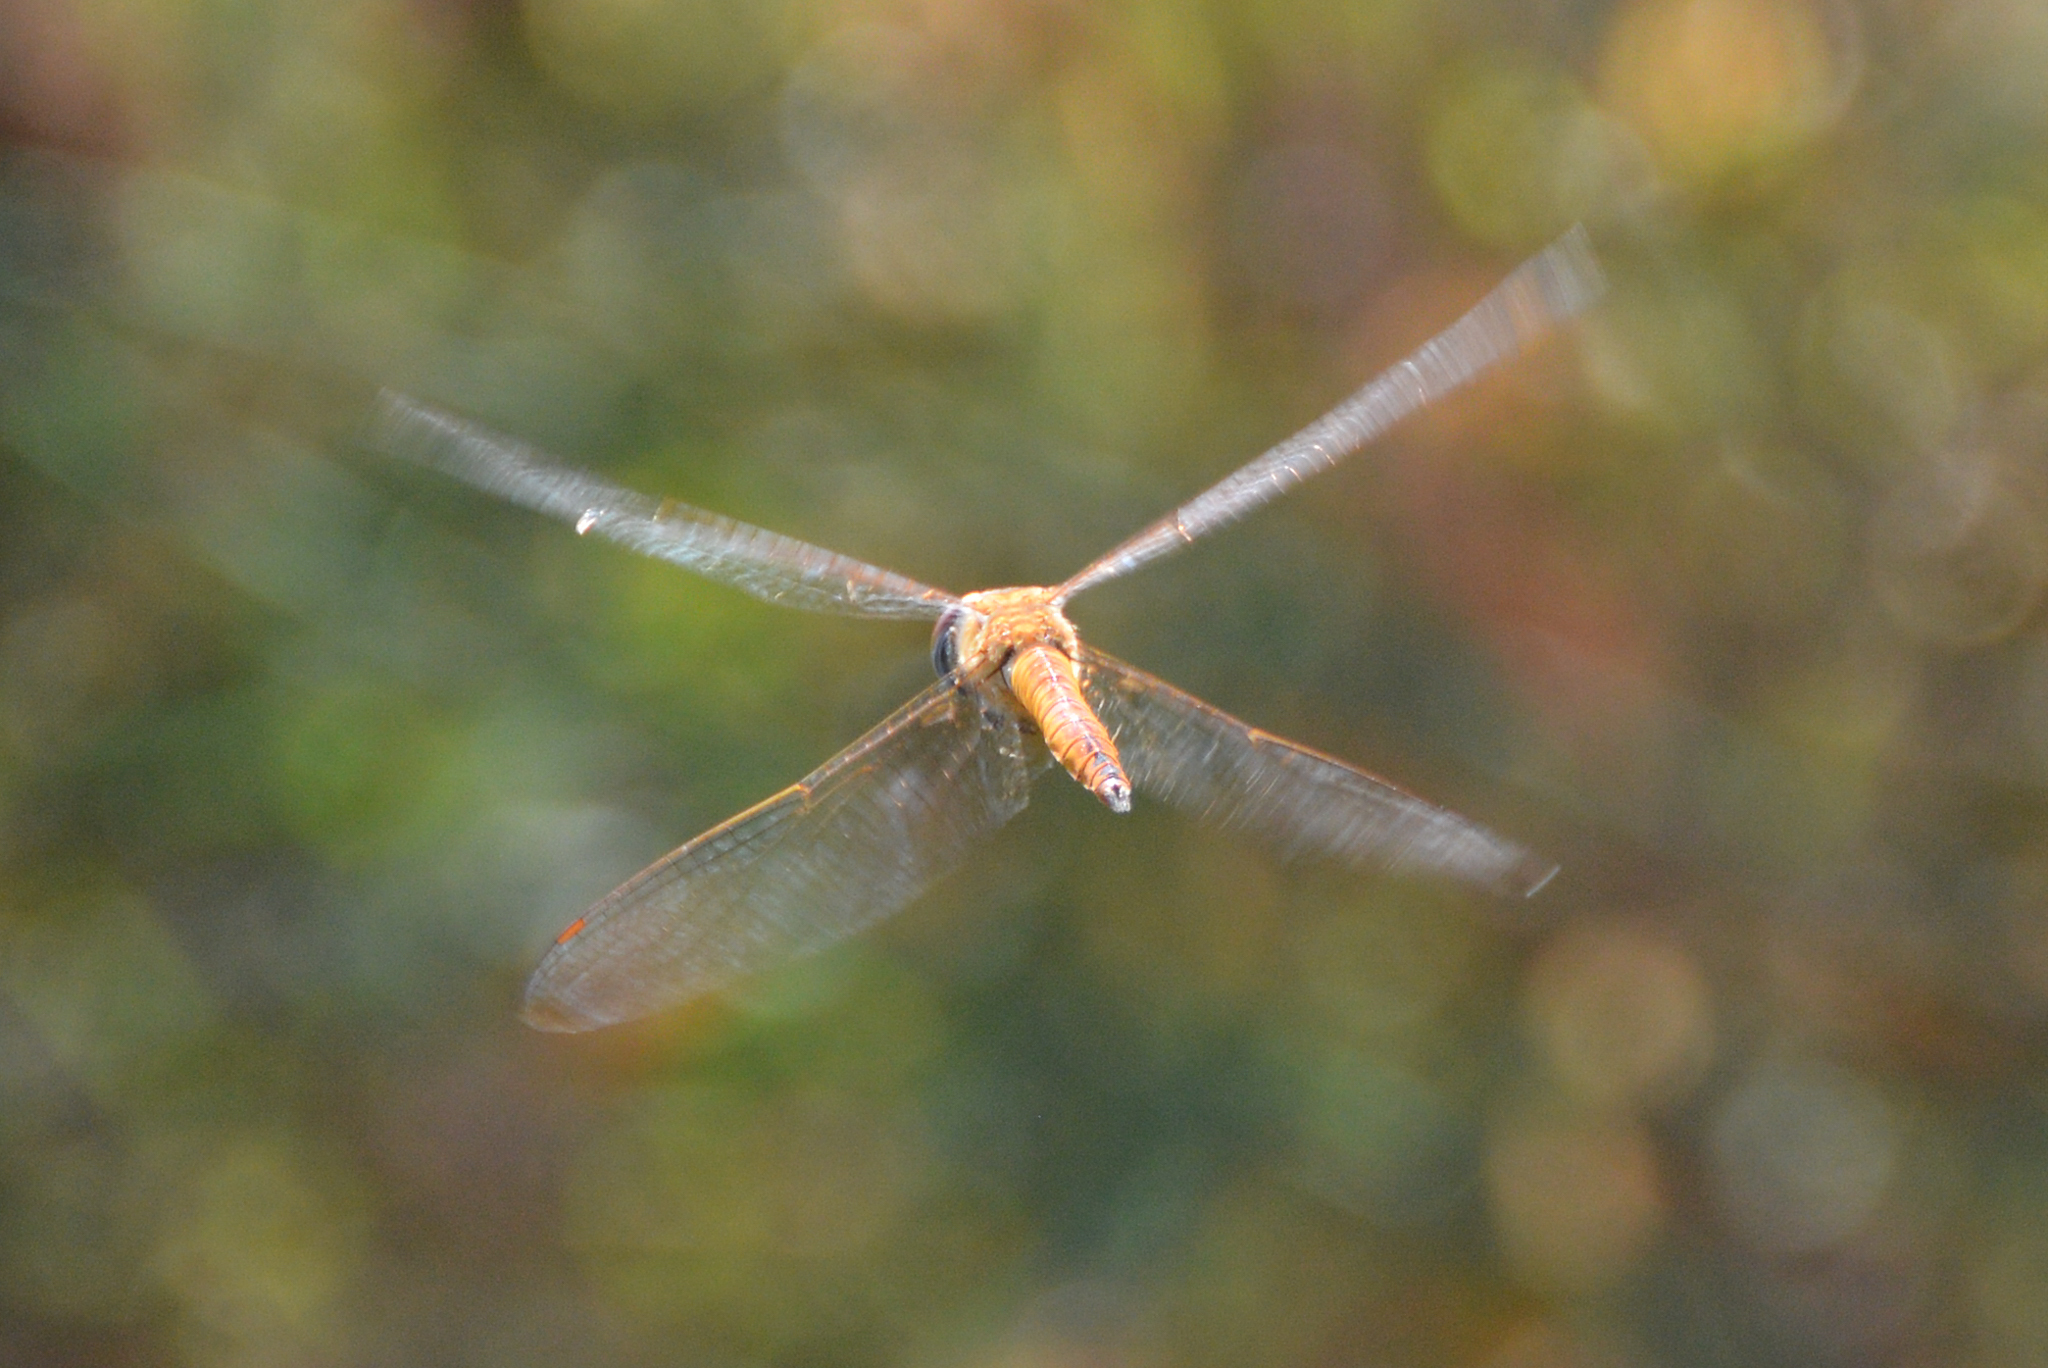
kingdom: Animalia
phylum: Arthropoda
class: Insecta
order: Odonata
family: Libellulidae
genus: Pantala
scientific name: Pantala flavescens
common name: Wandering glider
